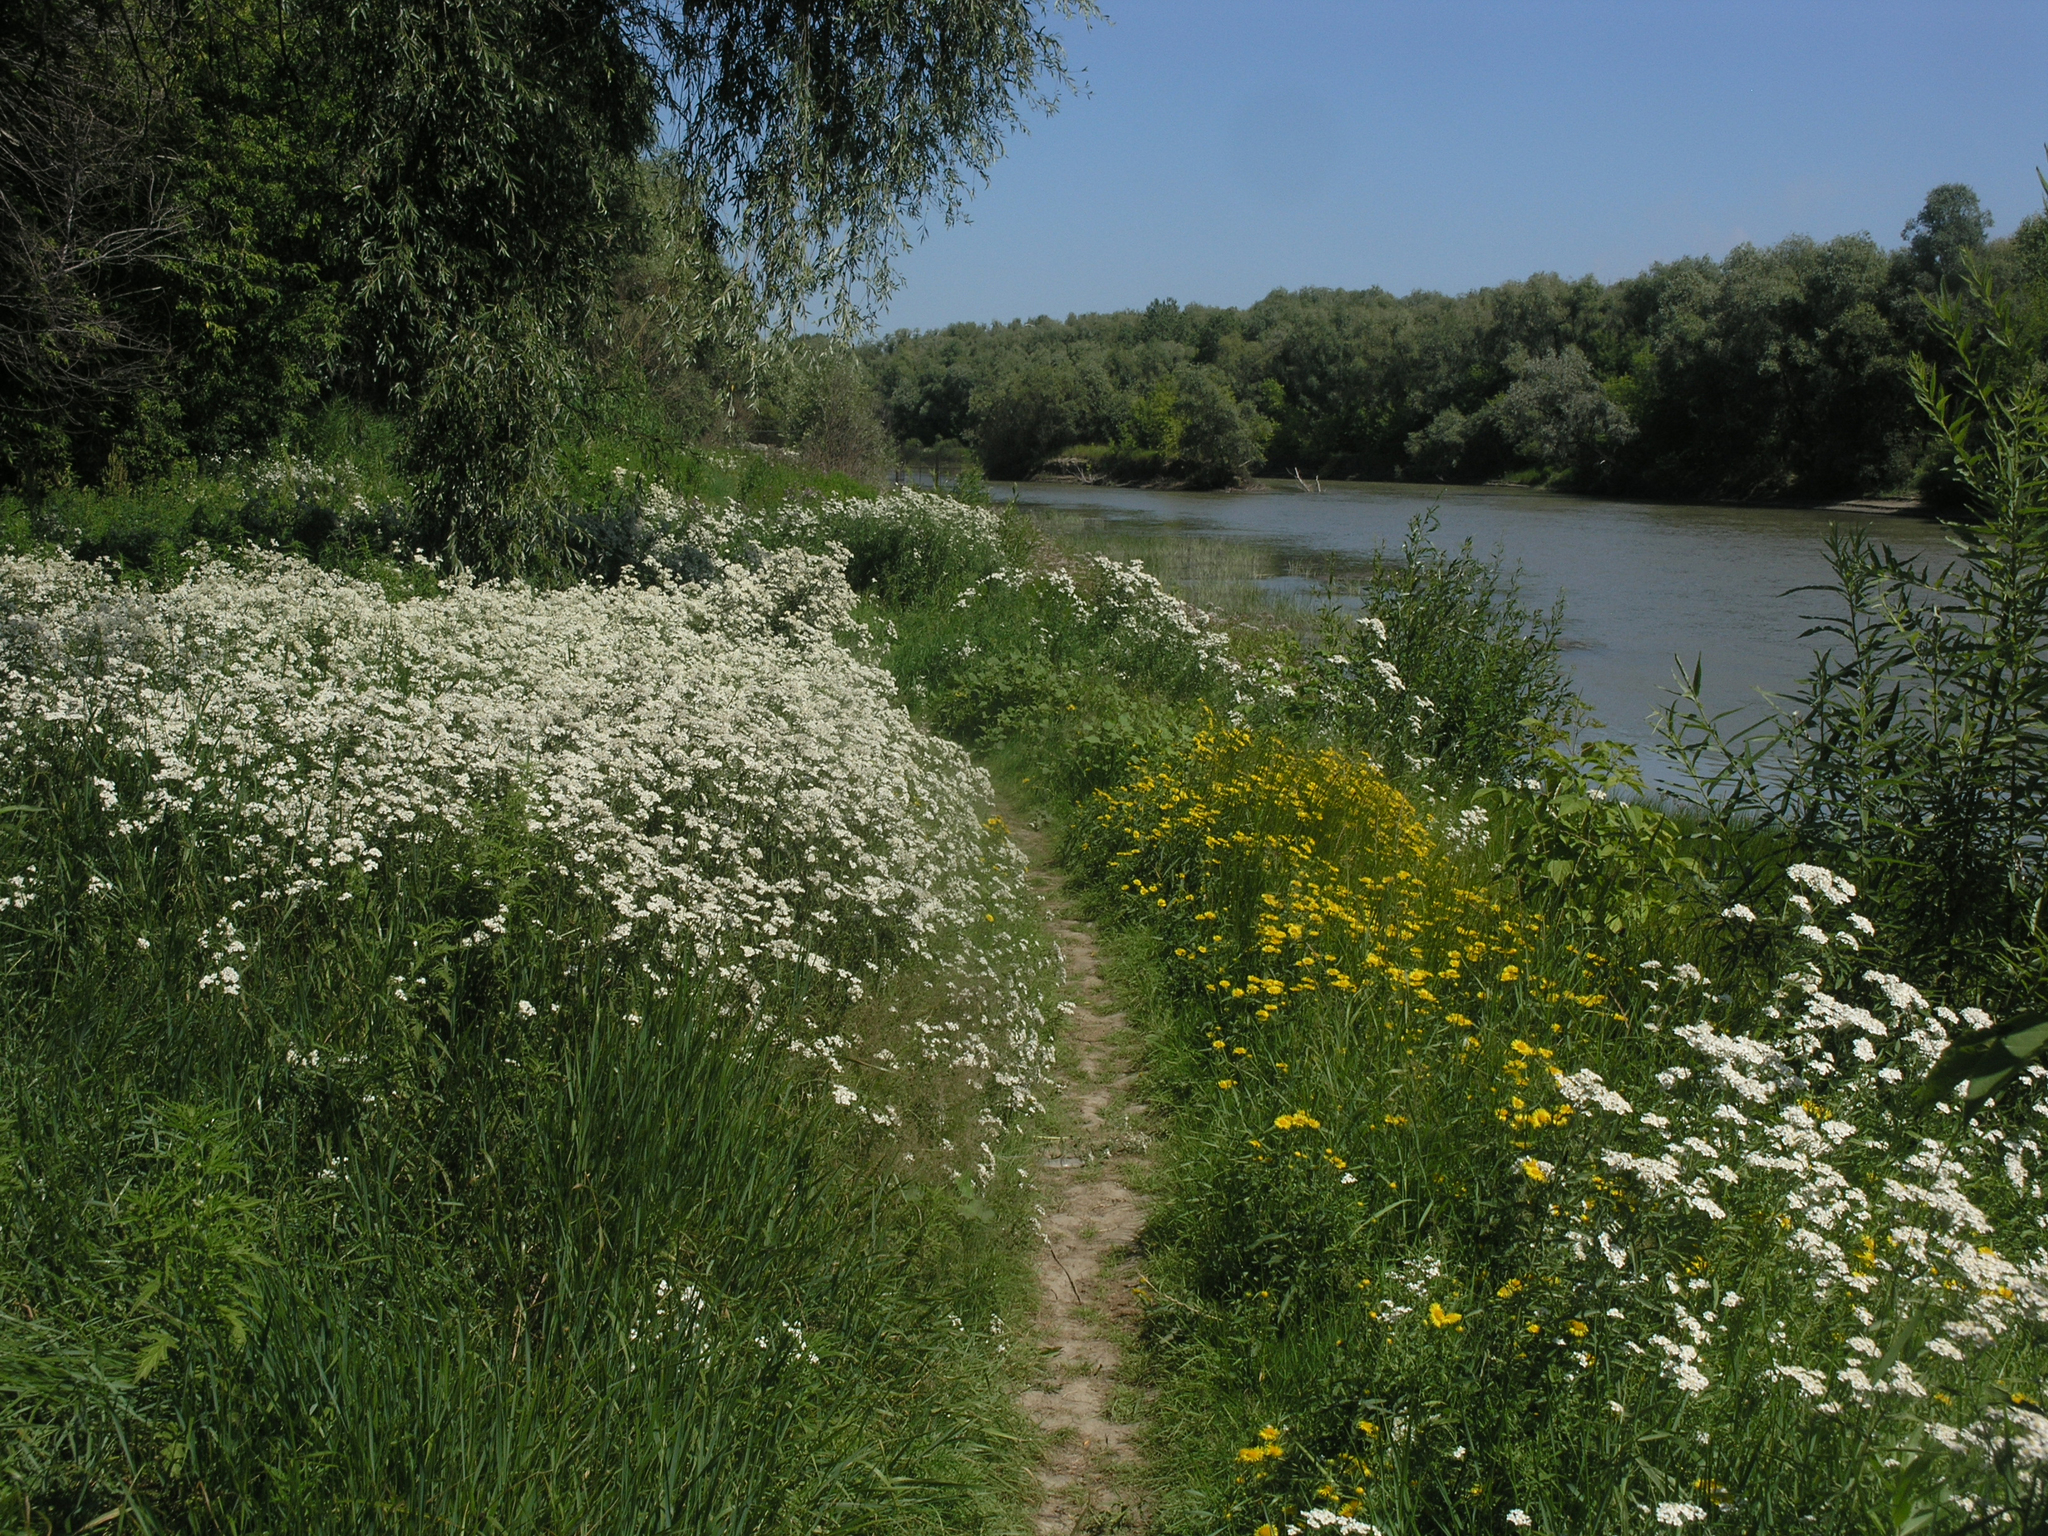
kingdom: Plantae
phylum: Tracheophyta
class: Magnoliopsida
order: Asterales
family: Asteraceae
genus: Achillea
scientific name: Achillea salicifolia
